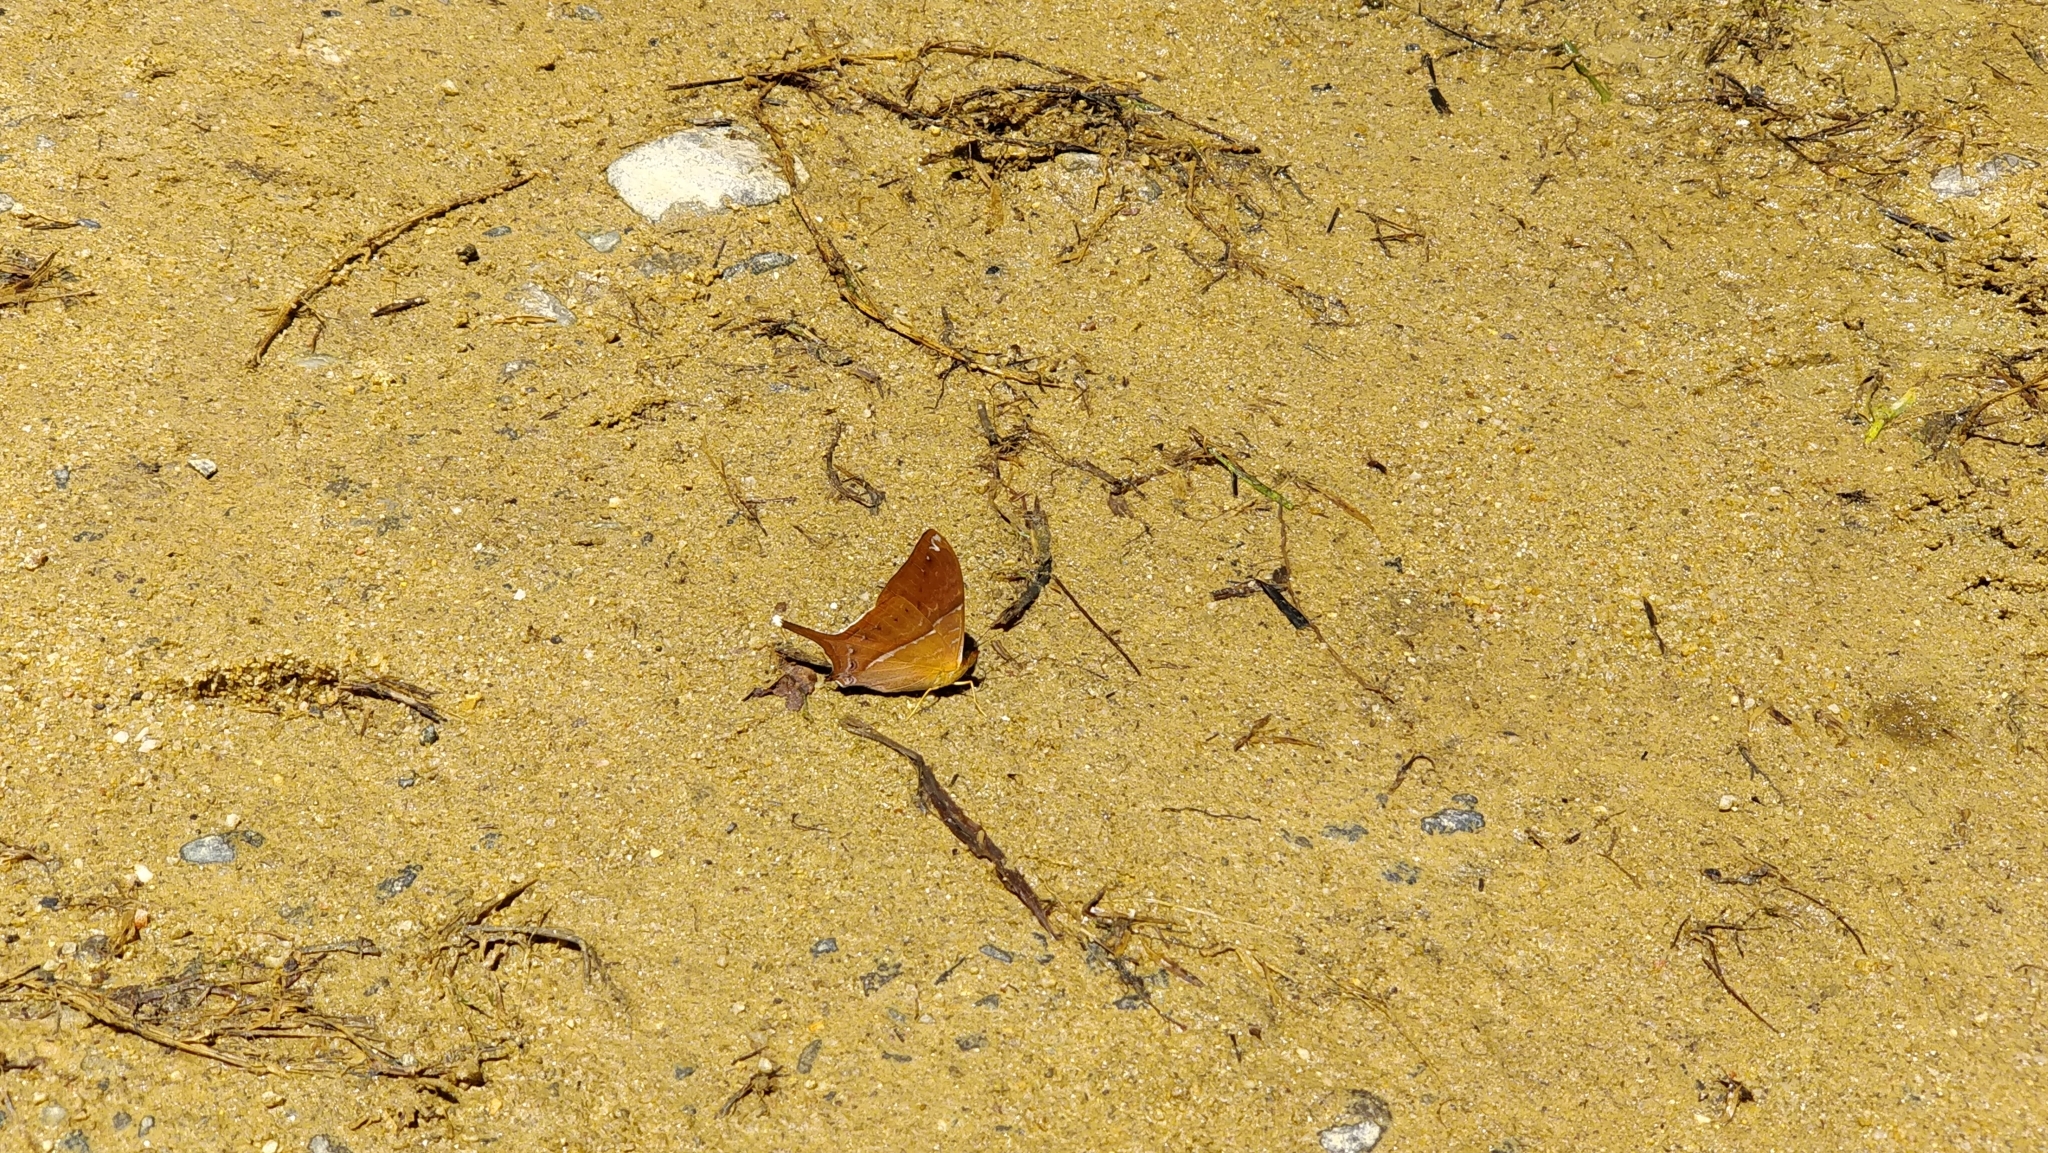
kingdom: Animalia
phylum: Arthropoda
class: Insecta
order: Lepidoptera
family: Nymphalidae
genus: Marpesia
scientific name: Marpesia corita
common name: Orange-banded daggerwing
